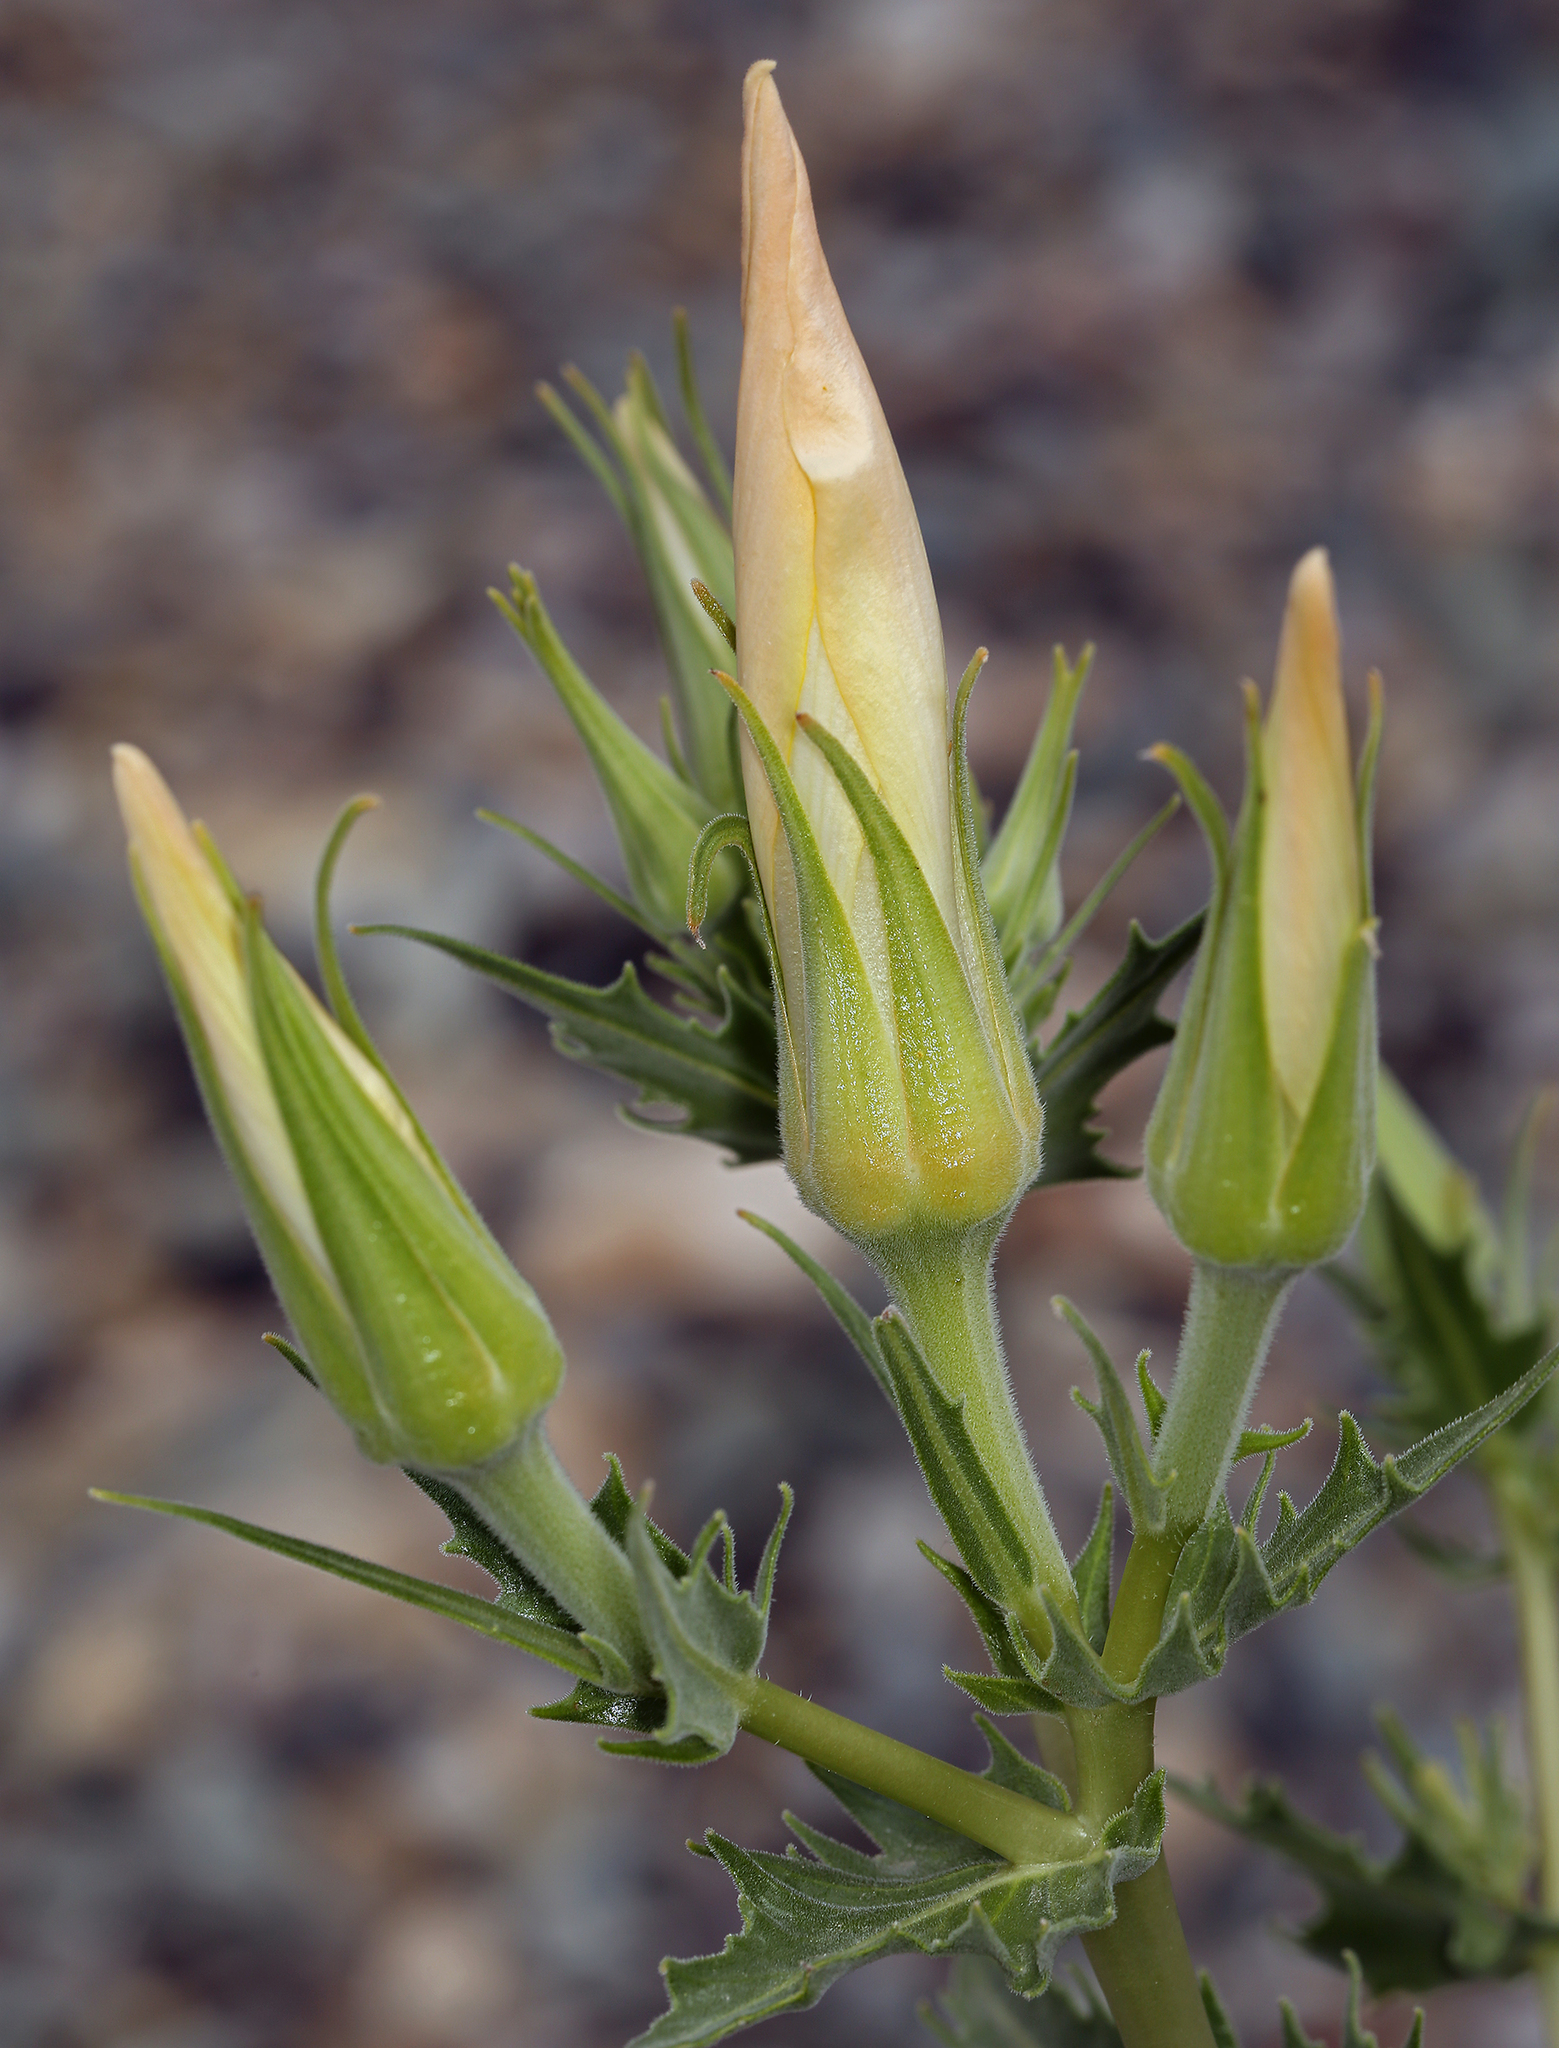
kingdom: Plantae
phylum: Tracheophyta
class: Magnoliopsida
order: Cornales
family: Loasaceae
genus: Mentzelia
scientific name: Mentzelia laevicaulis
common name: Smooth-stem blazingstar
